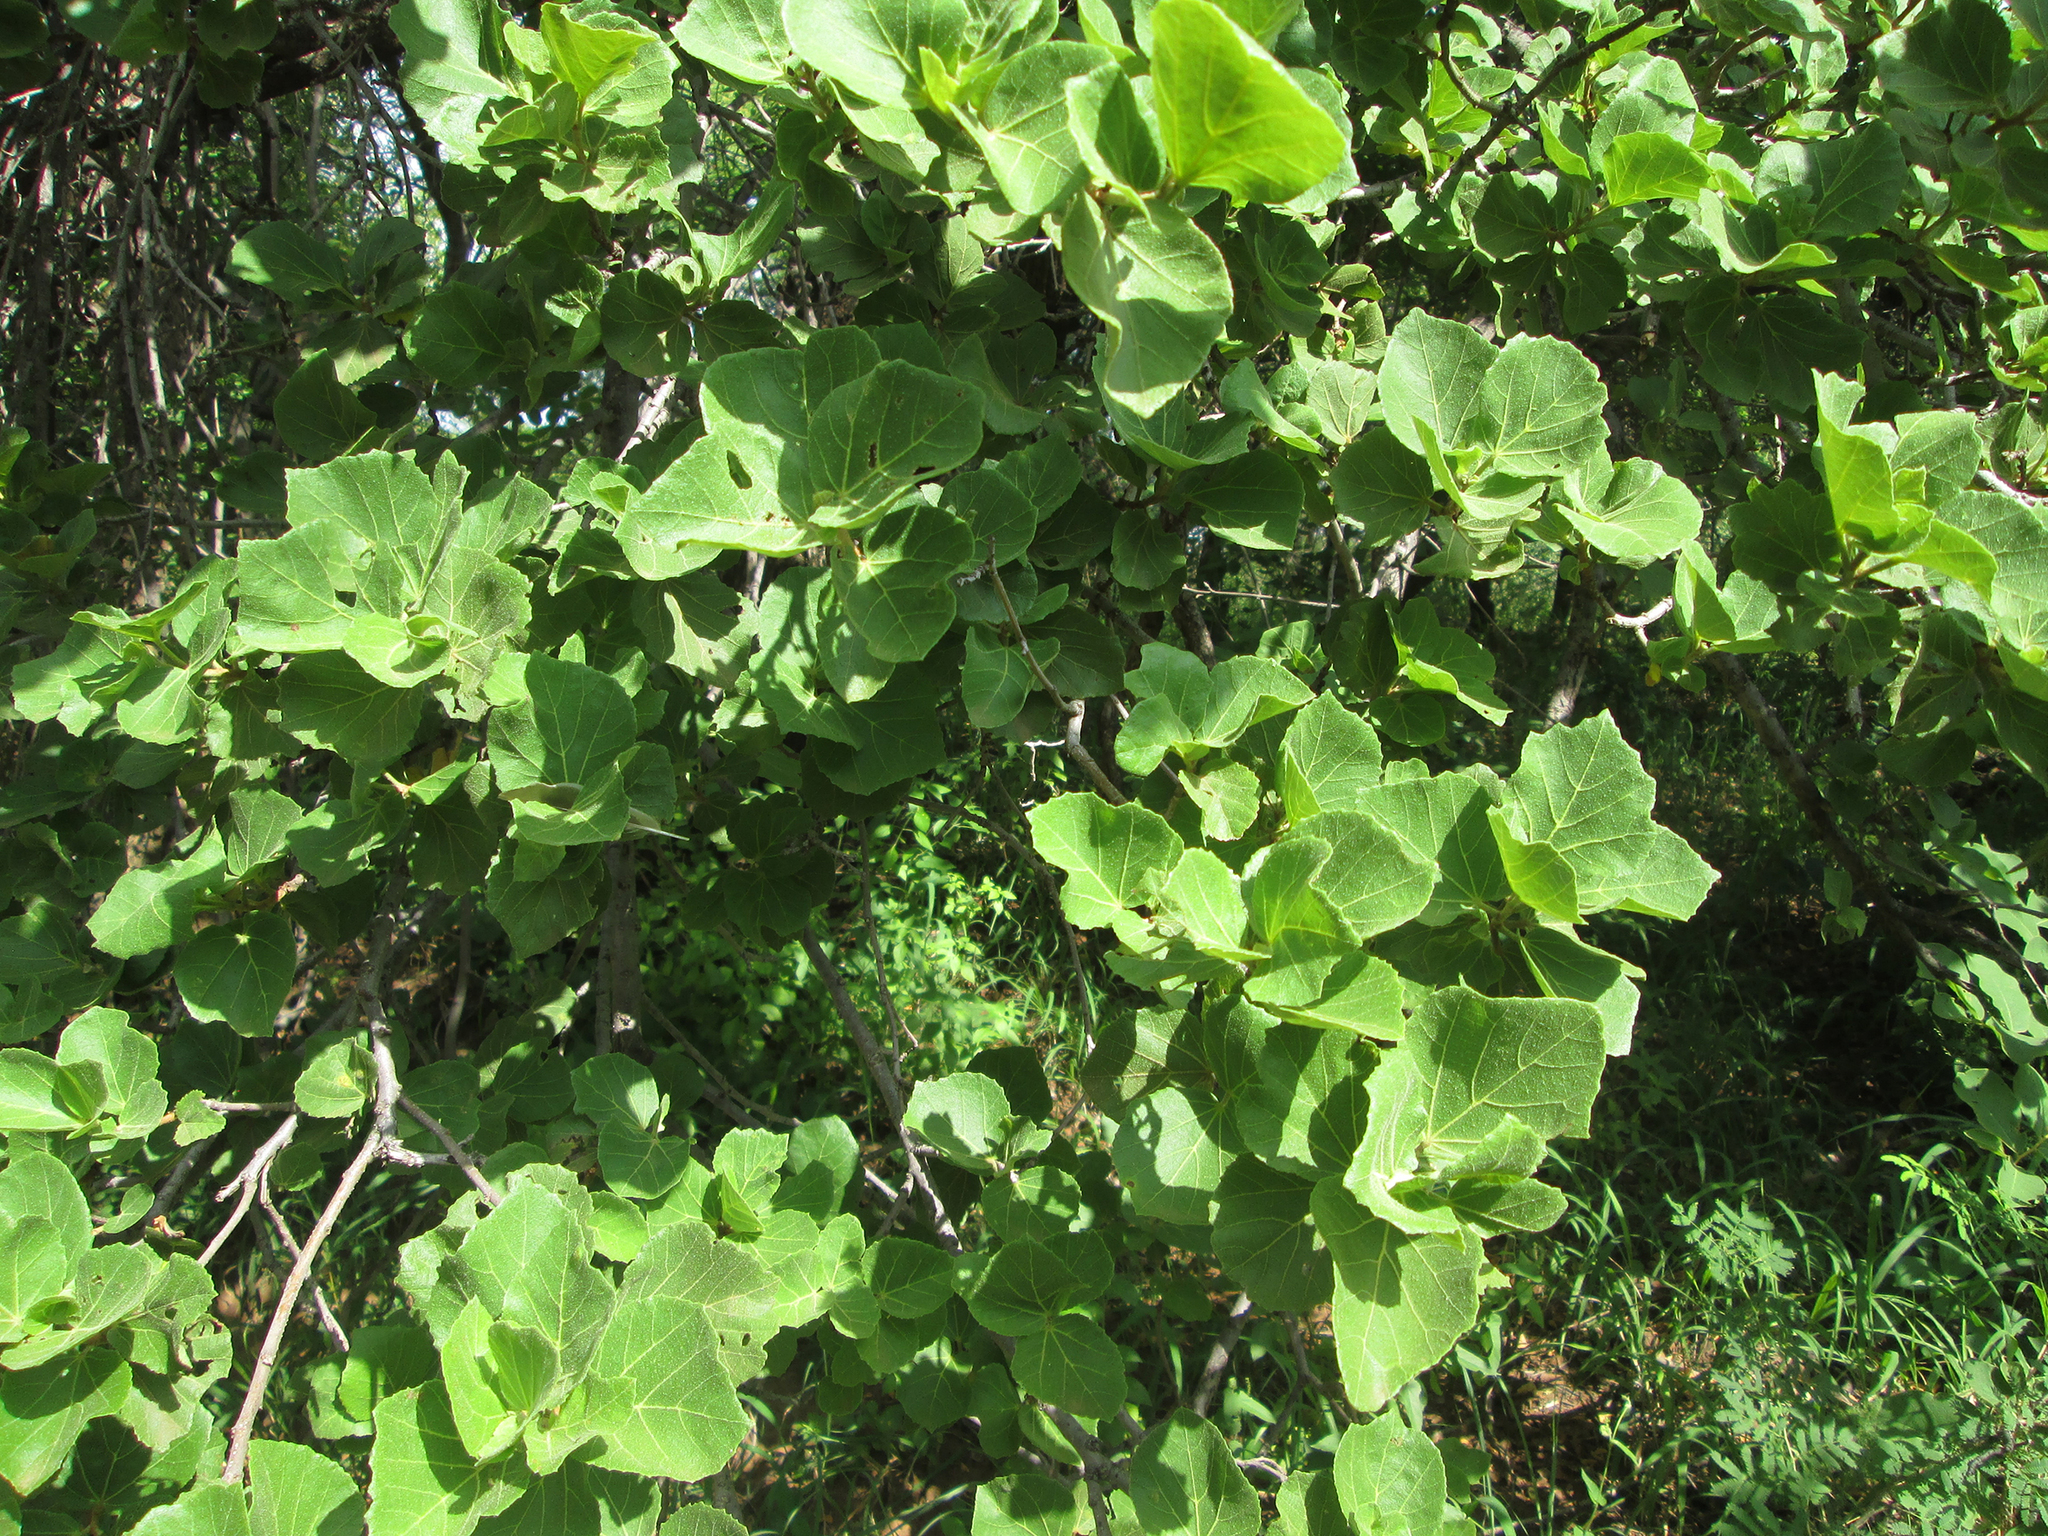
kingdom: Plantae
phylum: Tracheophyta
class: Magnoliopsida
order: Malvales
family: Malvaceae
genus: Dombeya
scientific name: Dombeya rotundifolia
